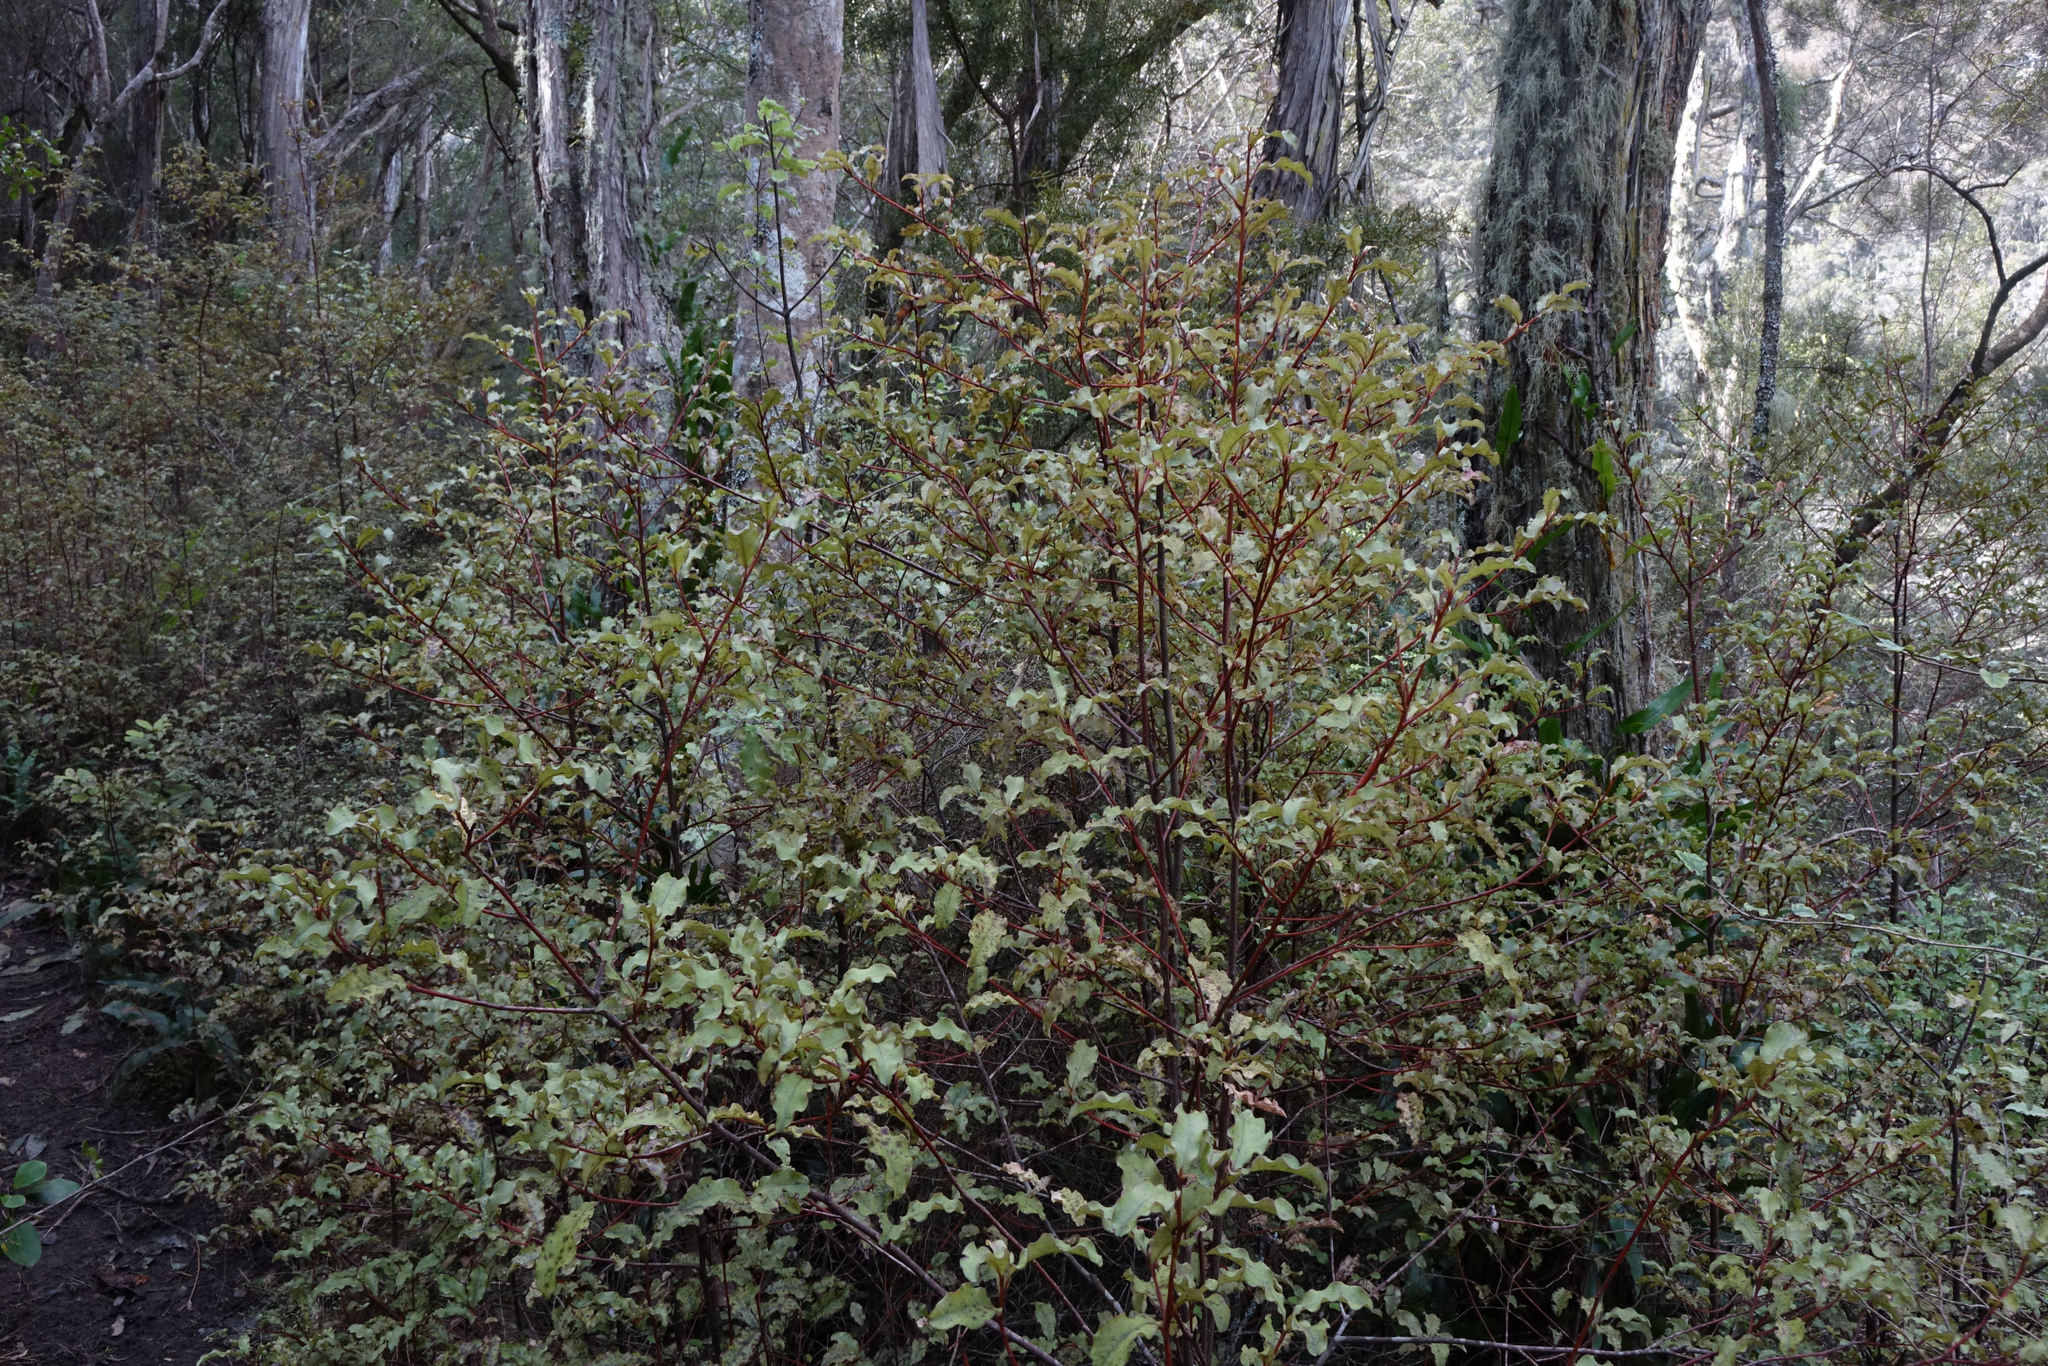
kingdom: Plantae
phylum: Tracheophyta
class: Magnoliopsida
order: Ericales
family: Primulaceae
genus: Myrsine
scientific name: Myrsine australis
